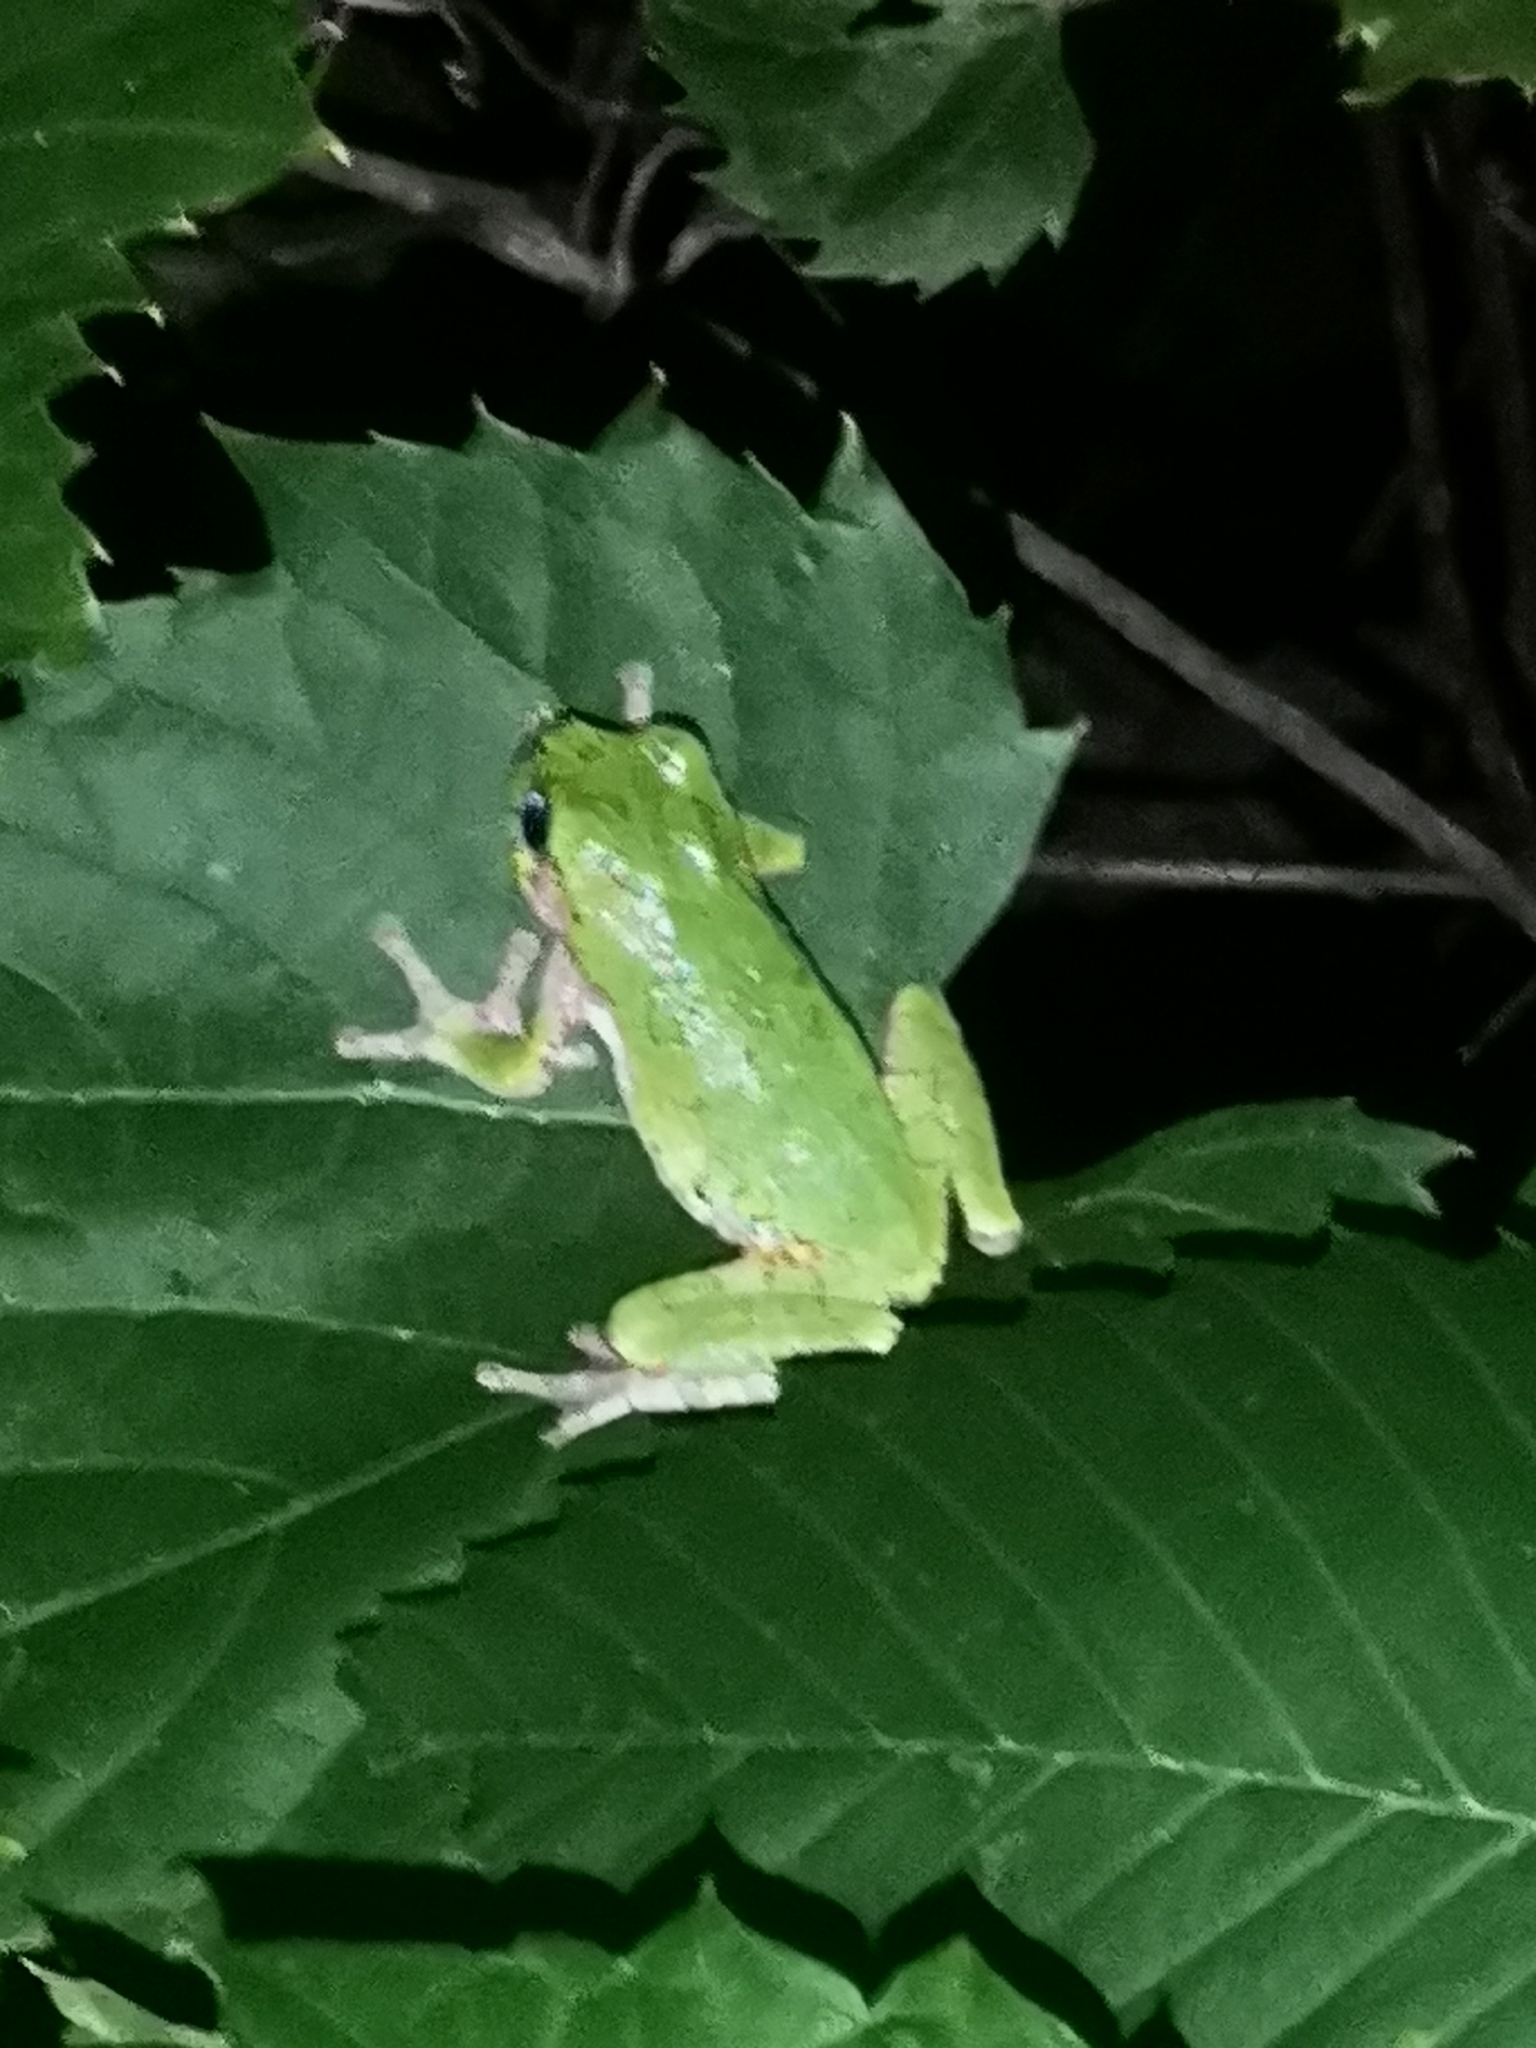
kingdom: Animalia
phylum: Chordata
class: Amphibia
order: Anura
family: Hylidae
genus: Dryophytes
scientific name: Dryophytes versicolor
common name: Gray treefrog
